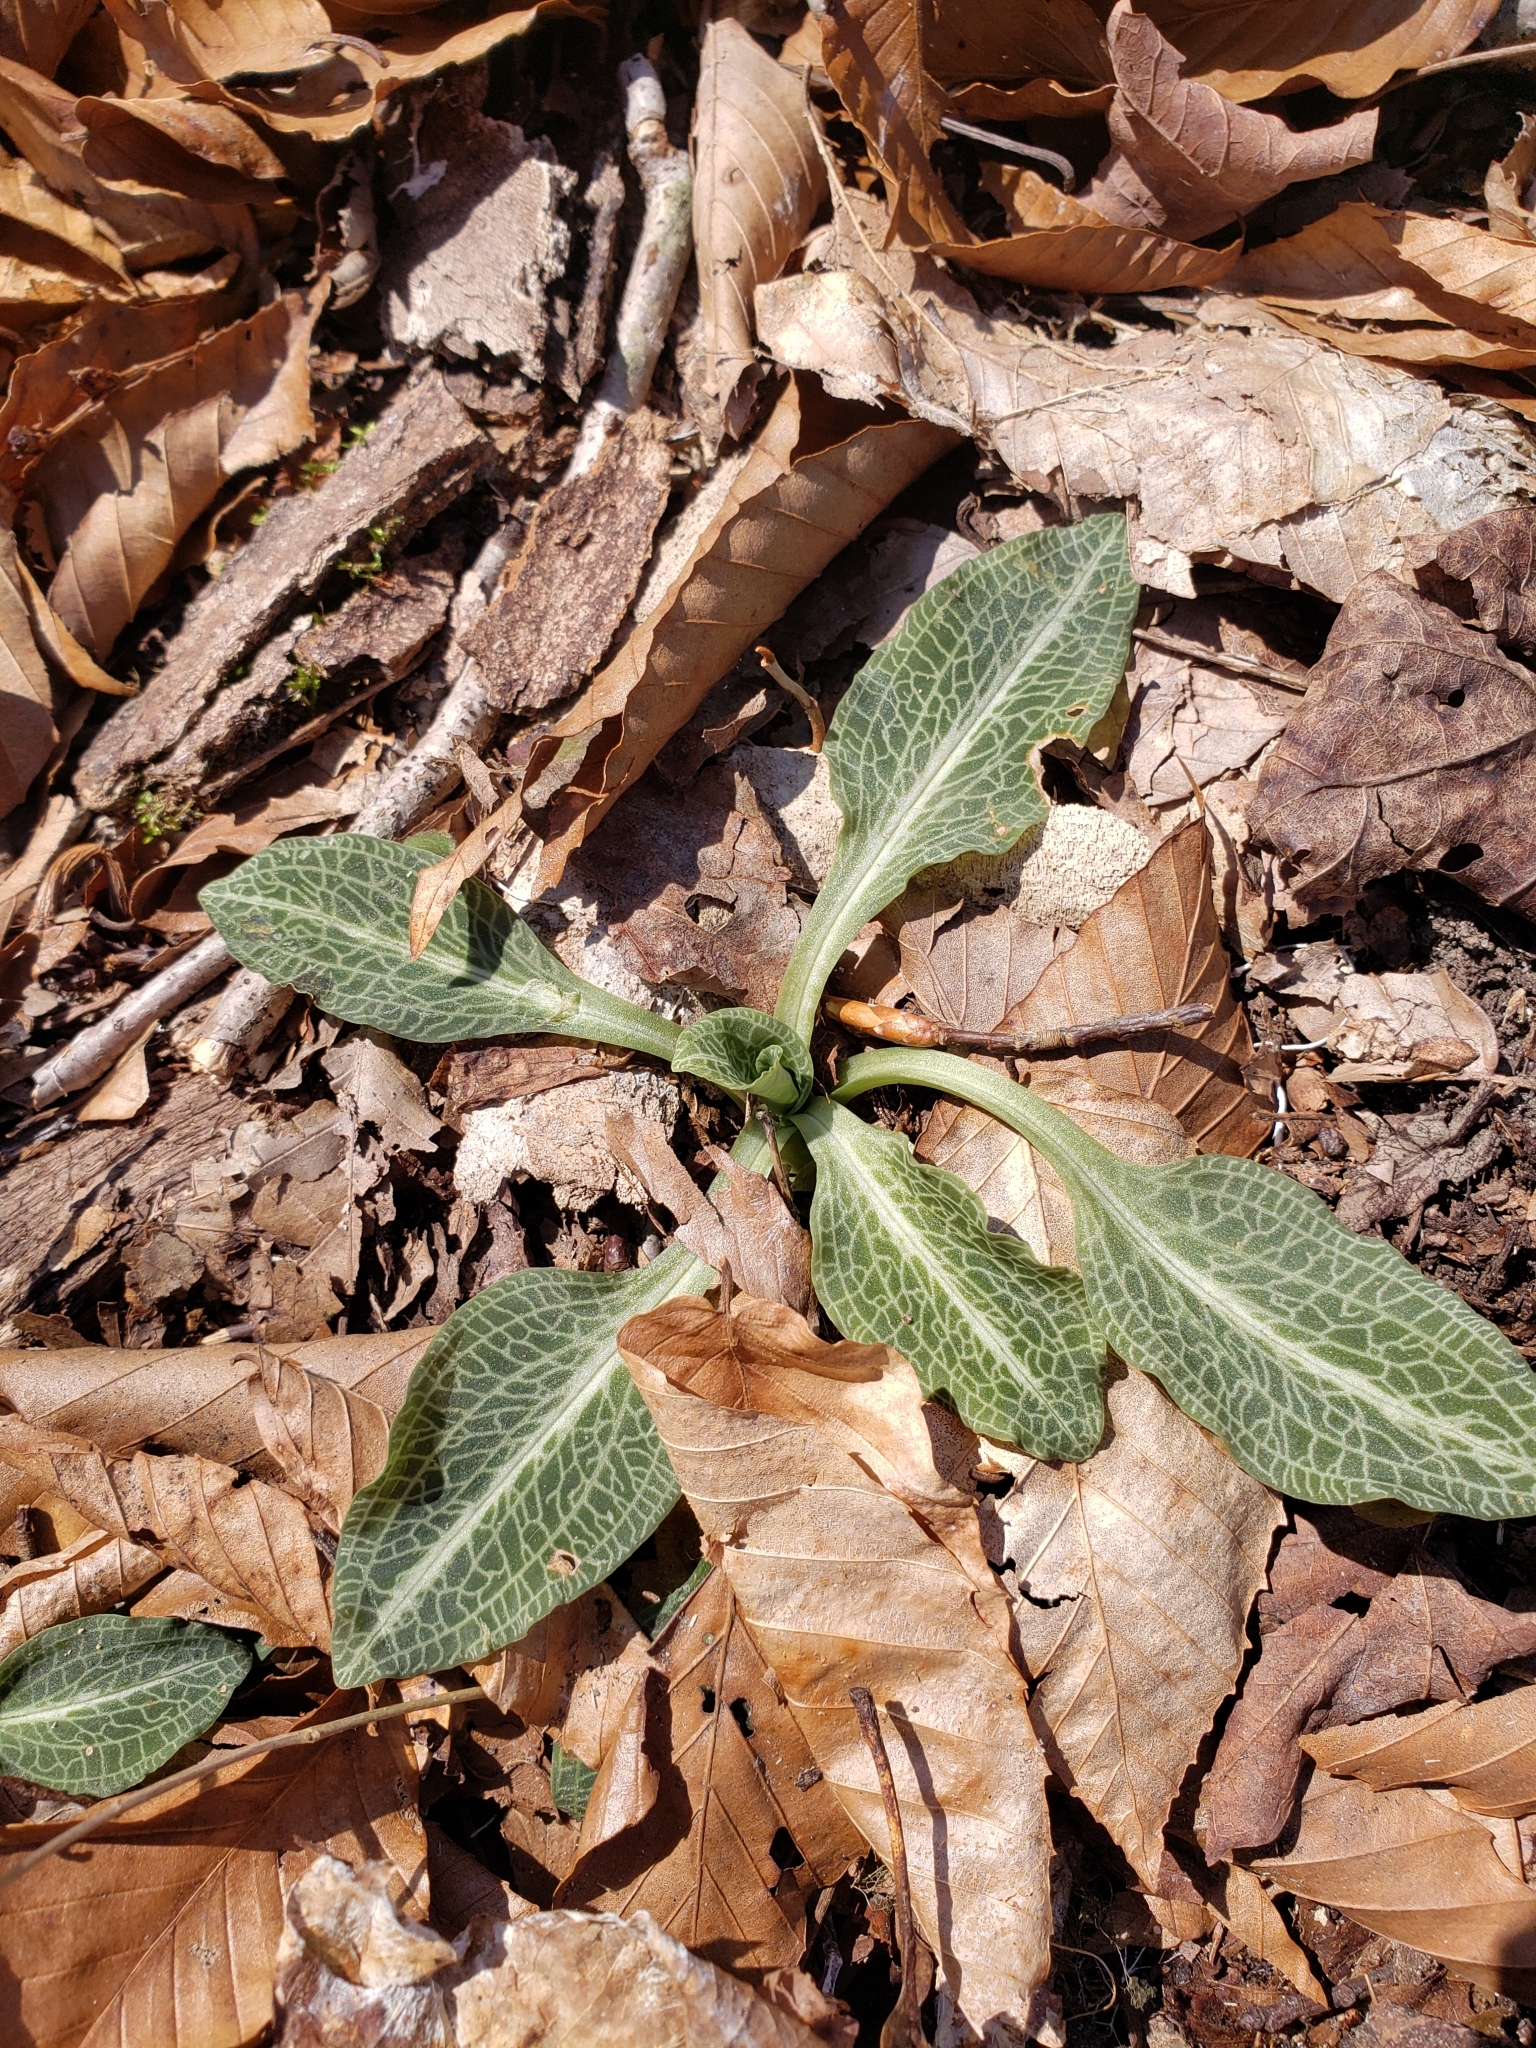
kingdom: Plantae
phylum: Tracheophyta
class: Liliopsida
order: Asparagales
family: Orchidaceae
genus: Goodyera
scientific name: Goodyera pubescens
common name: Downy rattlesnake-plantain
